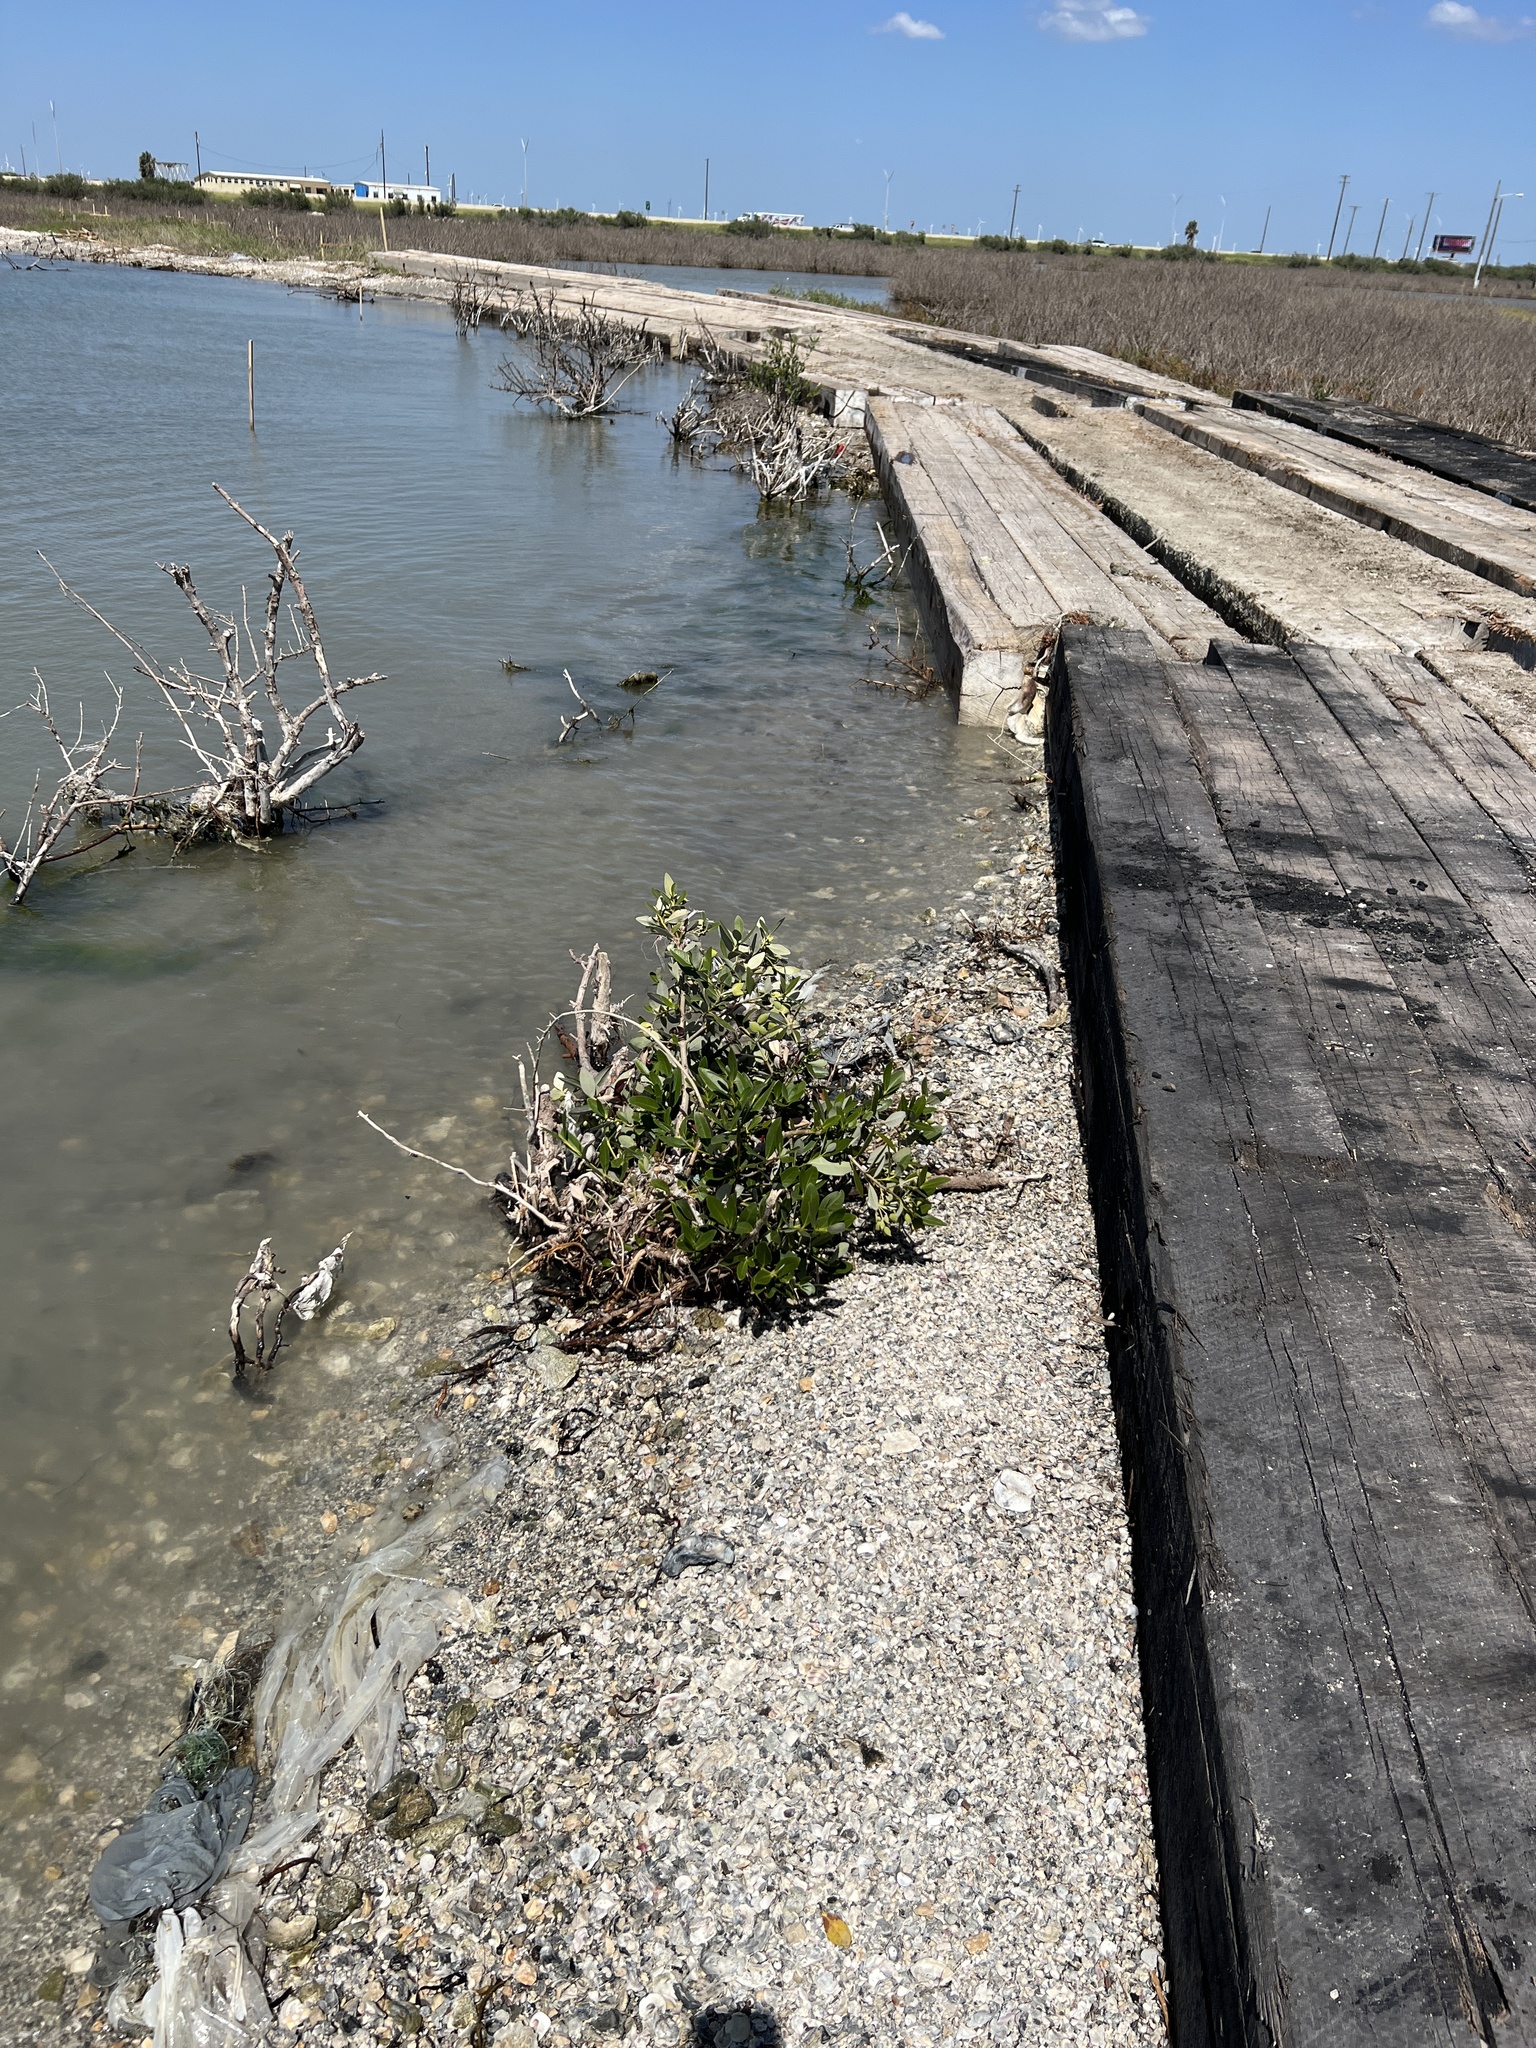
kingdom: Plantae
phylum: Tracheophyta
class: Magnoliopsida
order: Lamiales
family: Acanthaceae
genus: Avicennia
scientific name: Avicennia germinans
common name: Black mangrove
